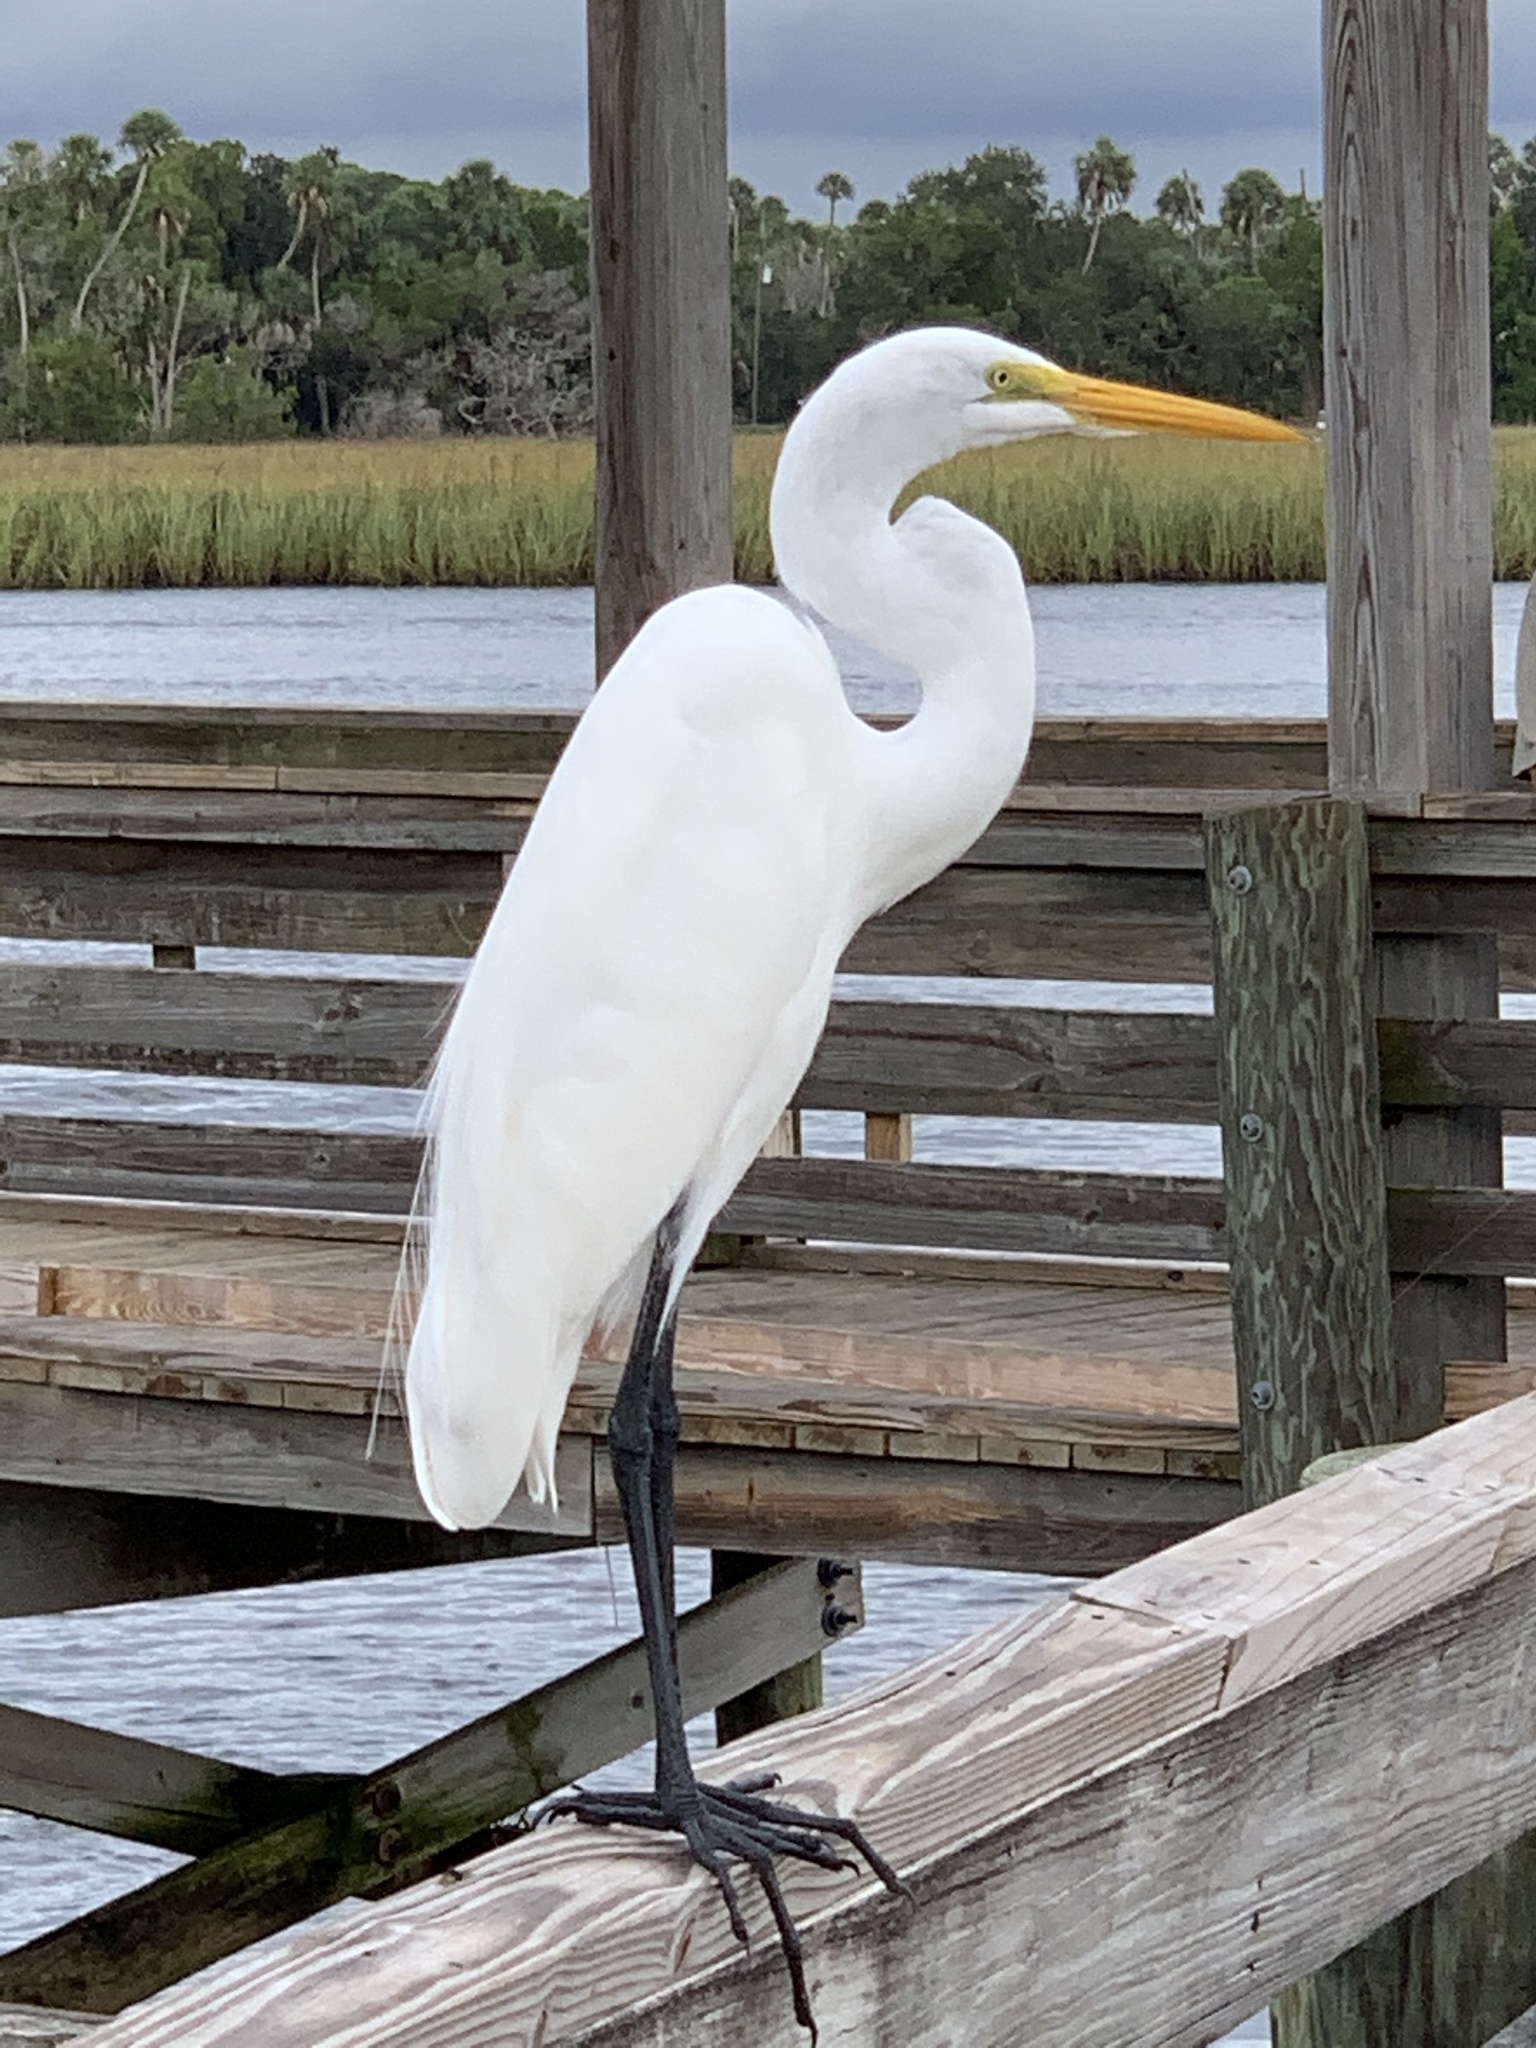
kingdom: Animalia
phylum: Chordata
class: Aves
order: Pelecaniformes
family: Ardeidae
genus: Ardea
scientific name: Ardea alba
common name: Great egret
